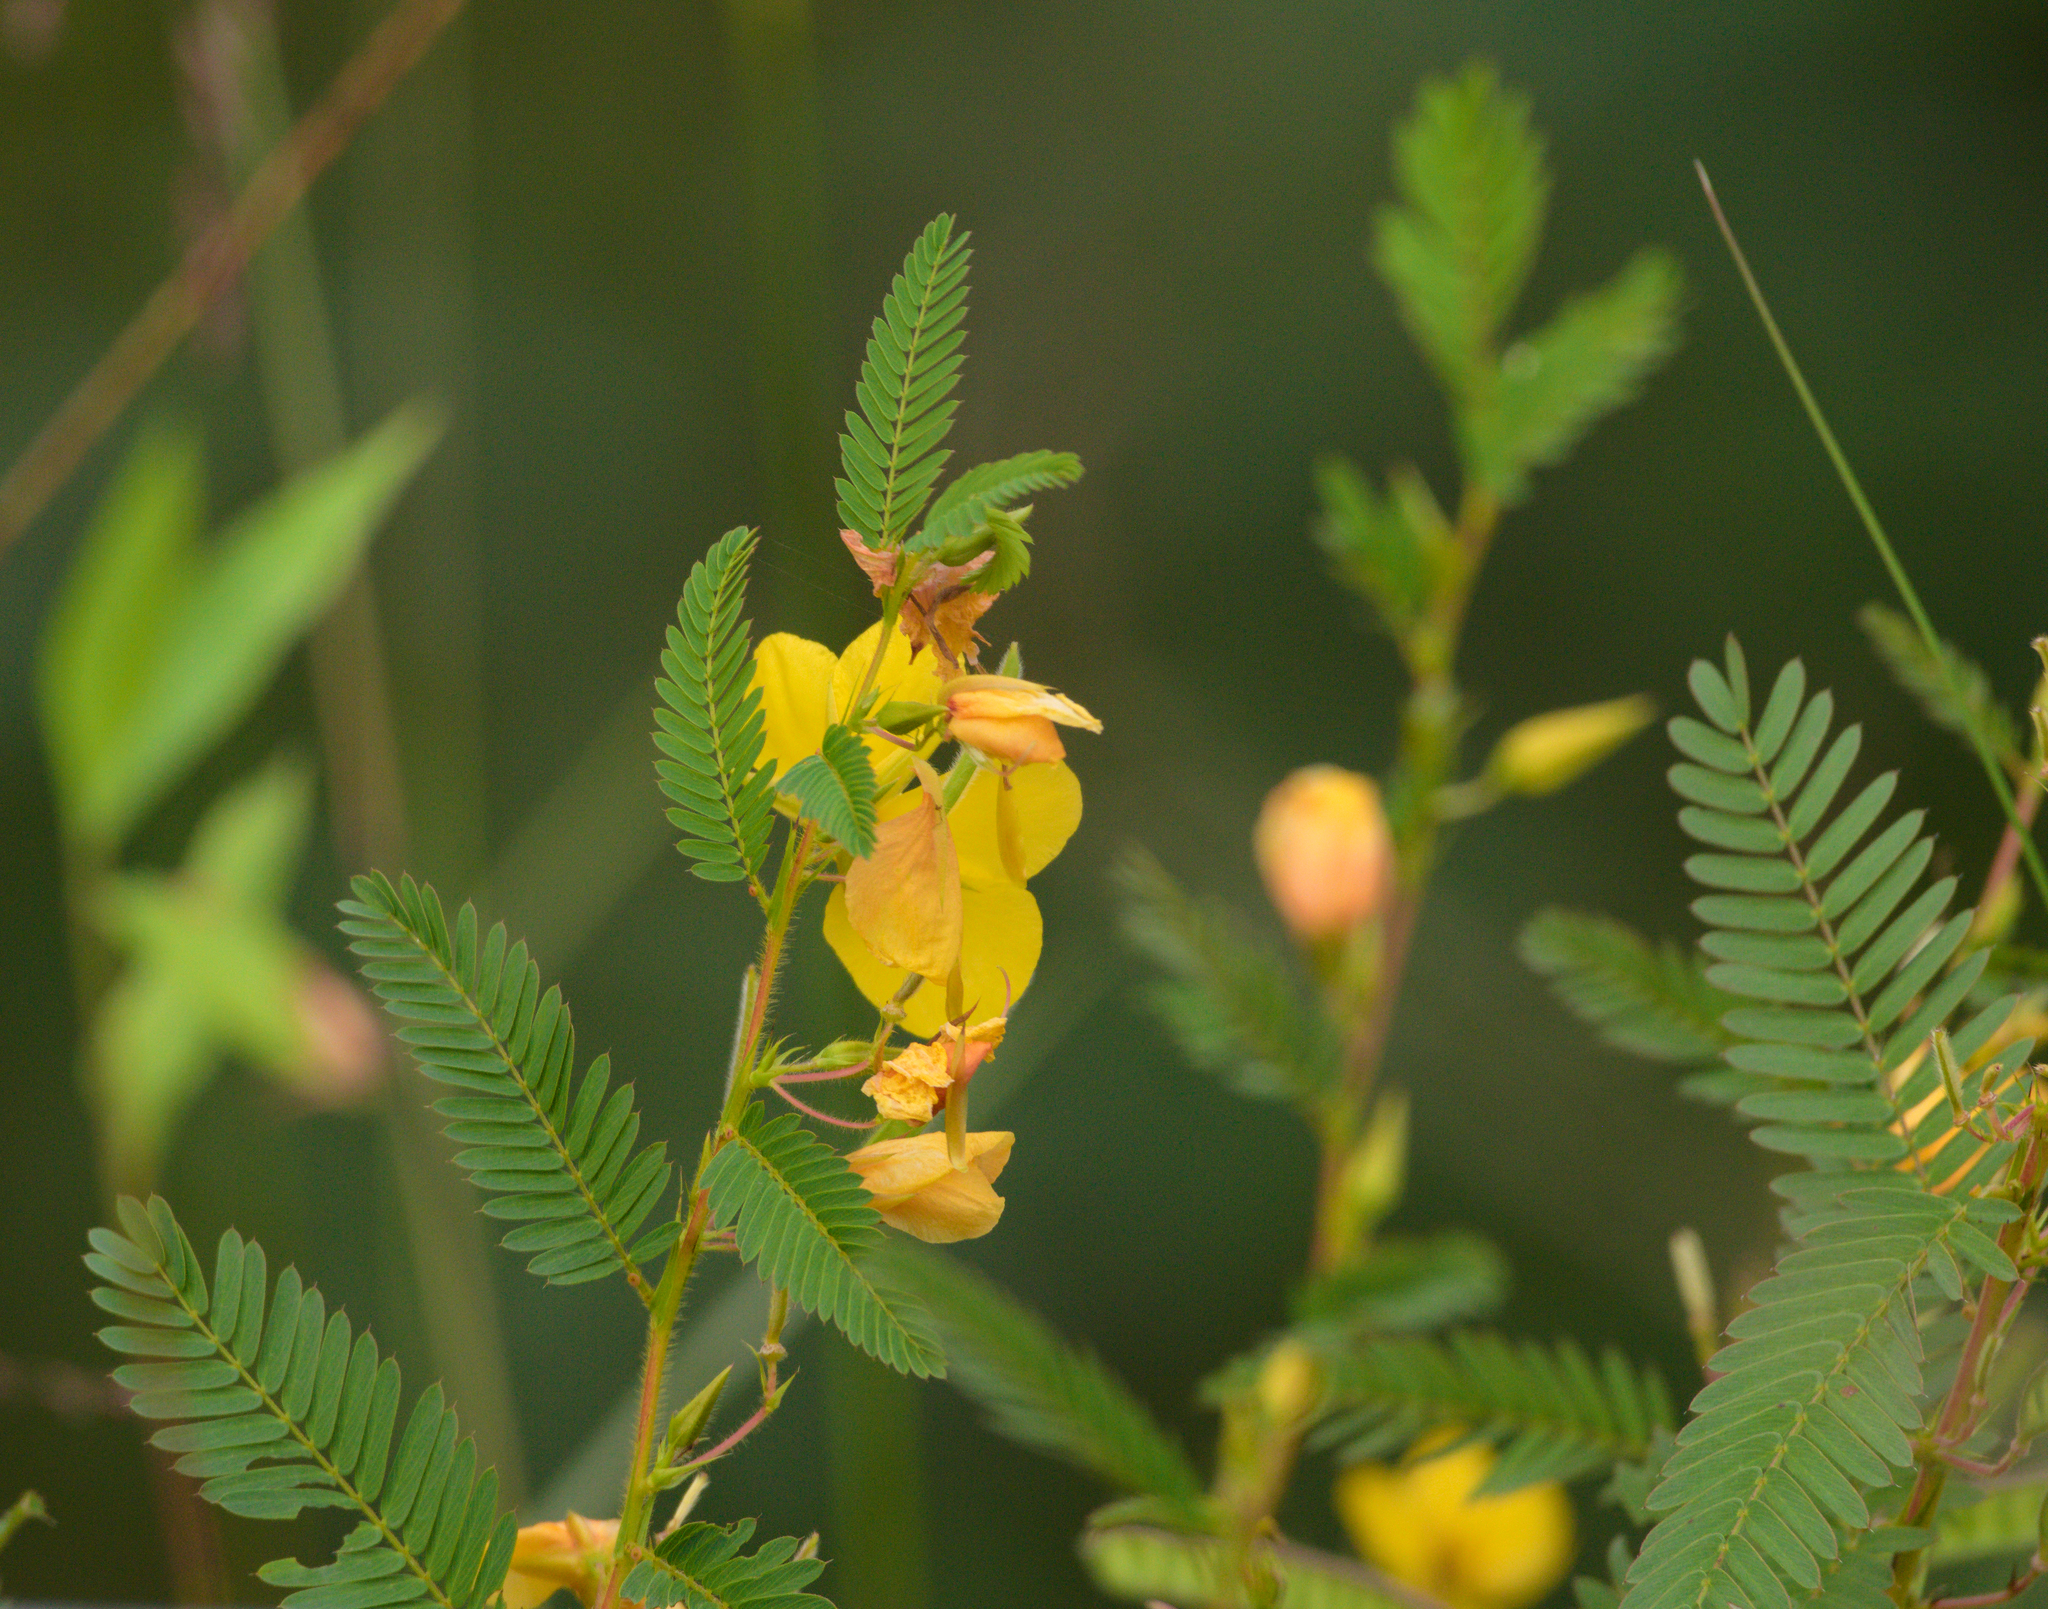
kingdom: Plantae
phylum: Tracheophyta
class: Magnoliopsida
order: Fabales
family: Fabaceae
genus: Chamaecrista
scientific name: Chamaecrista fasciculata
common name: Golden cassia
